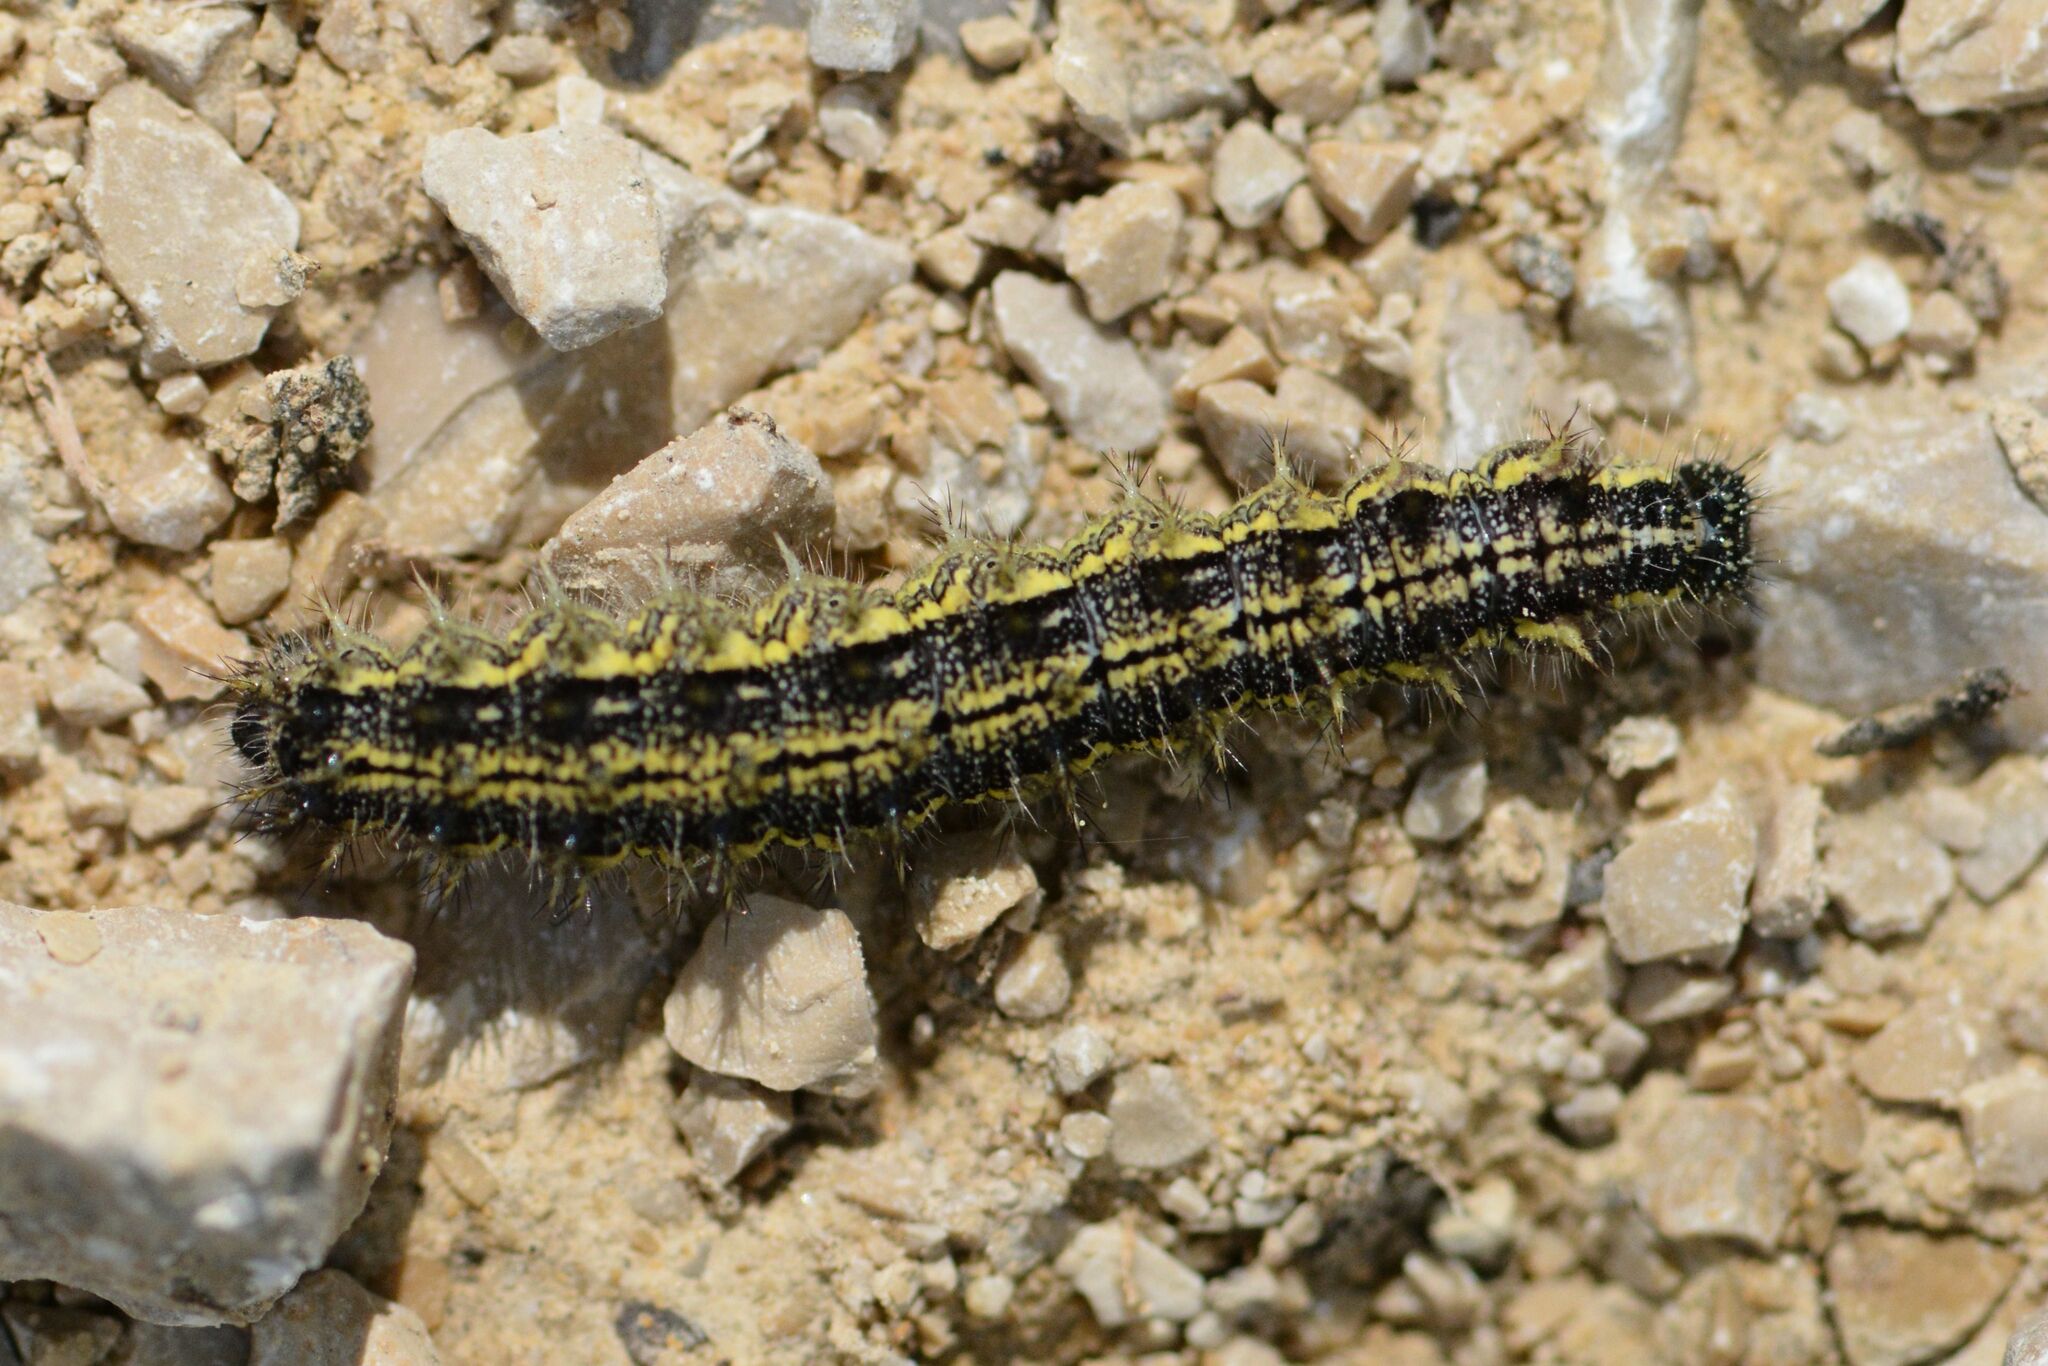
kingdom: Animalia
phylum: Arthropoda
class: Insecta
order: Lepidoptera
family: Nymphalidae
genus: Aglais
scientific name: Aglais urticae
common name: Small tortoiseshell
